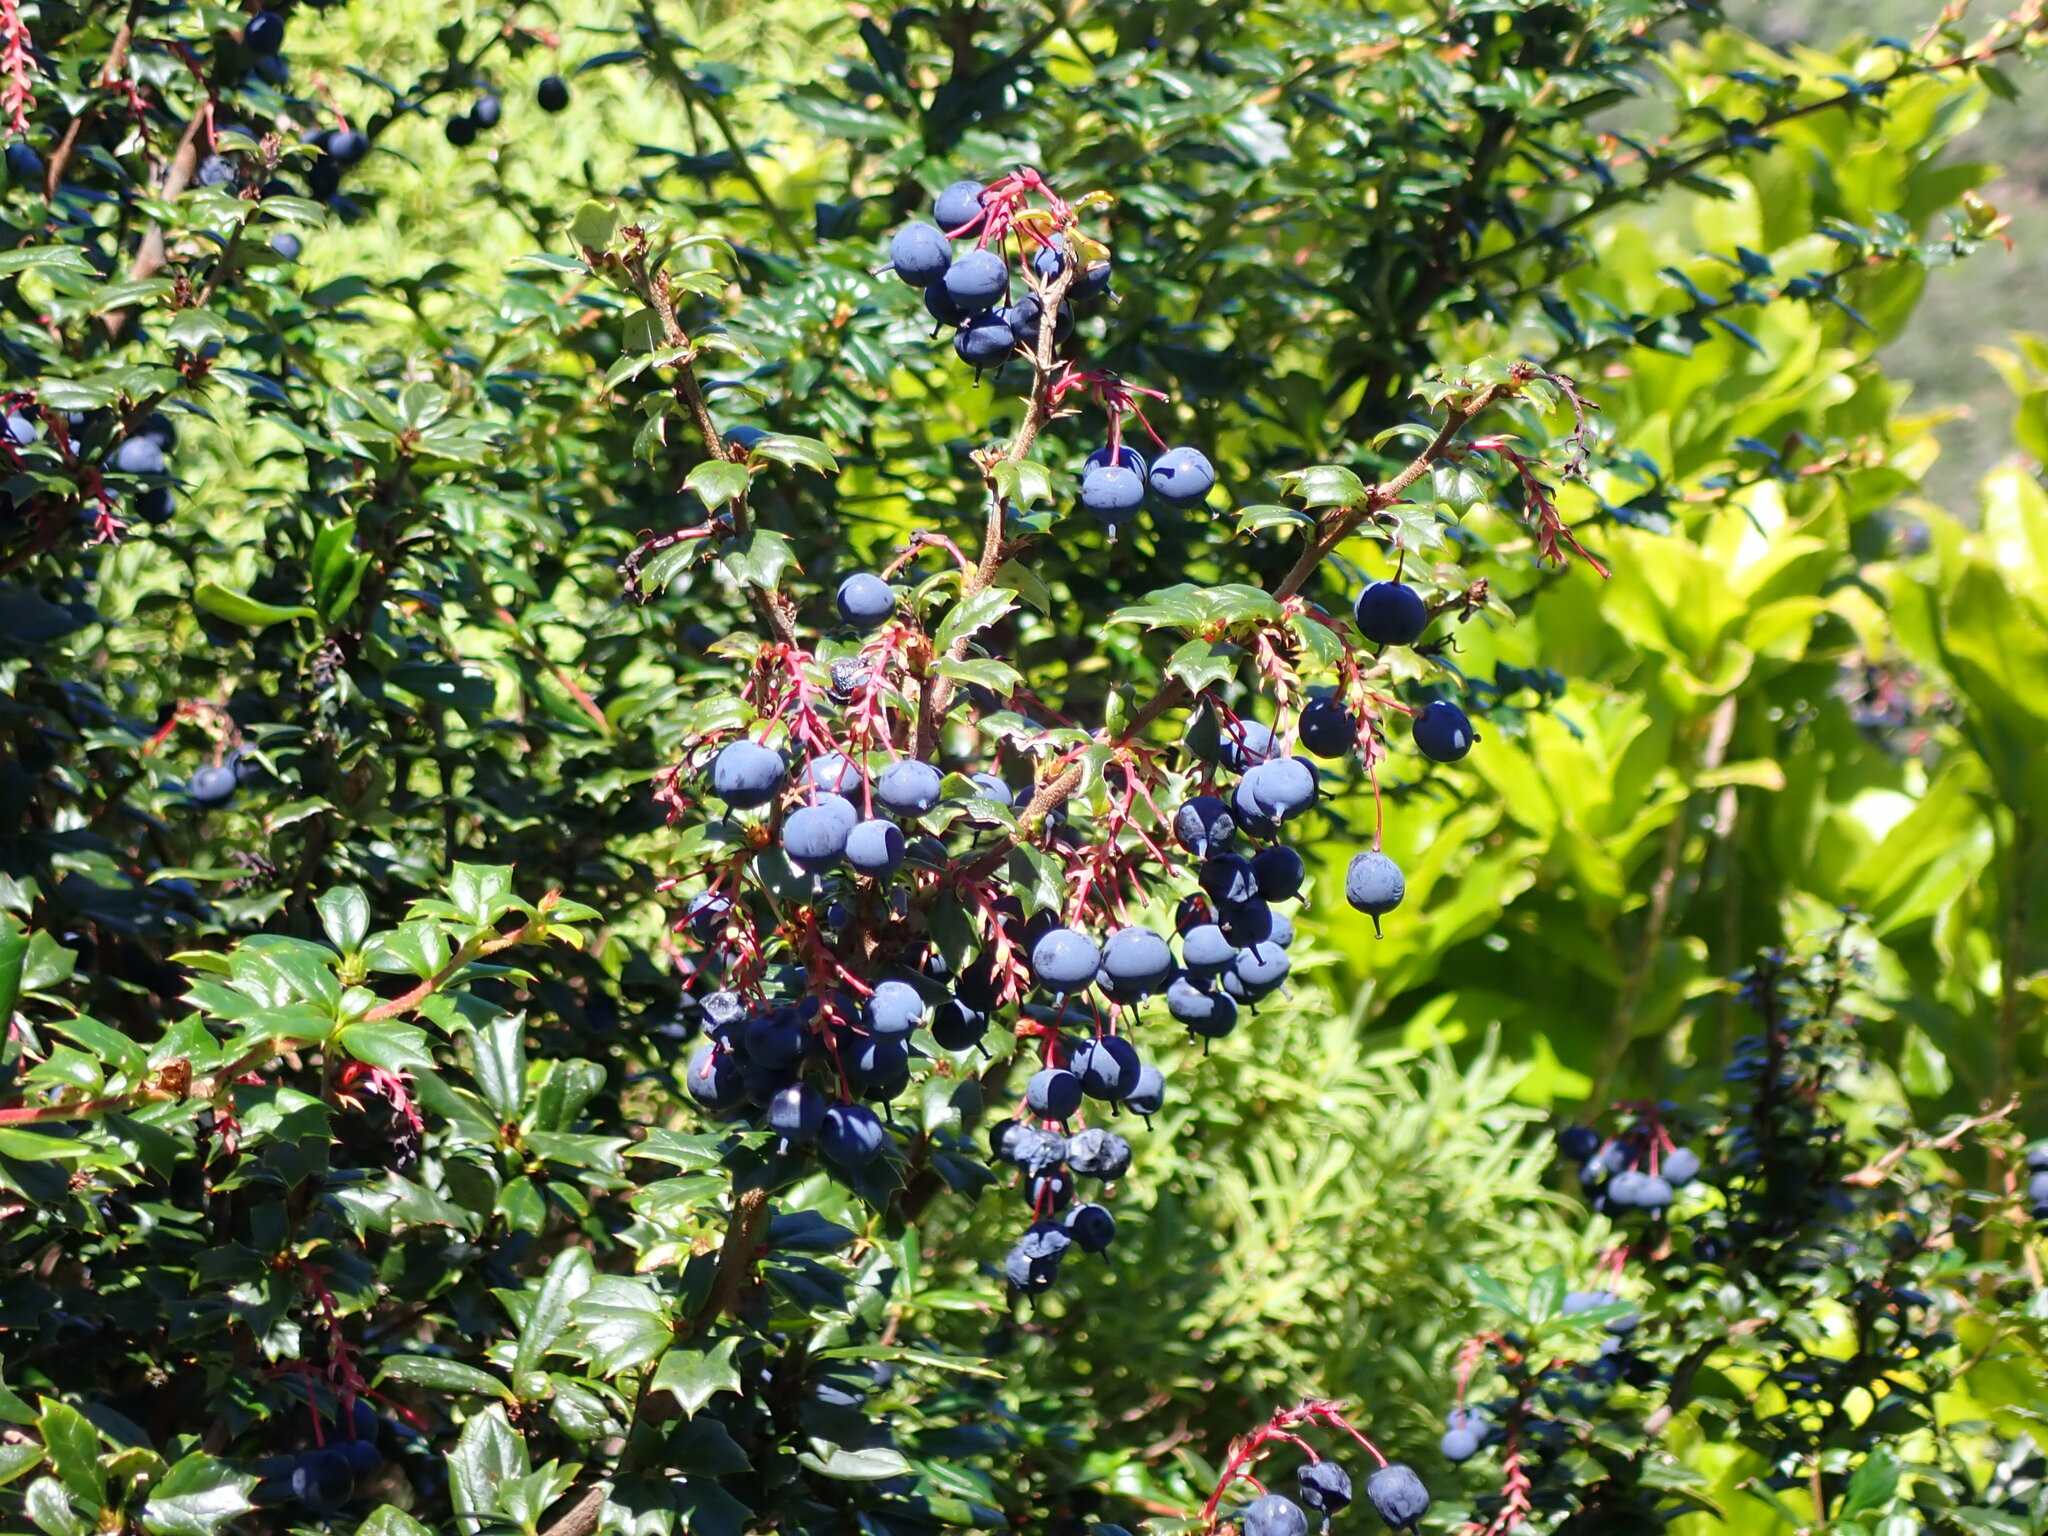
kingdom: Plantae
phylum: Tracheophyta
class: Magnoliopsida
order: Ranunculales
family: Berberidaceae
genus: Berberis
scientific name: Berberis darwinii
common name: Darwin's barberry
